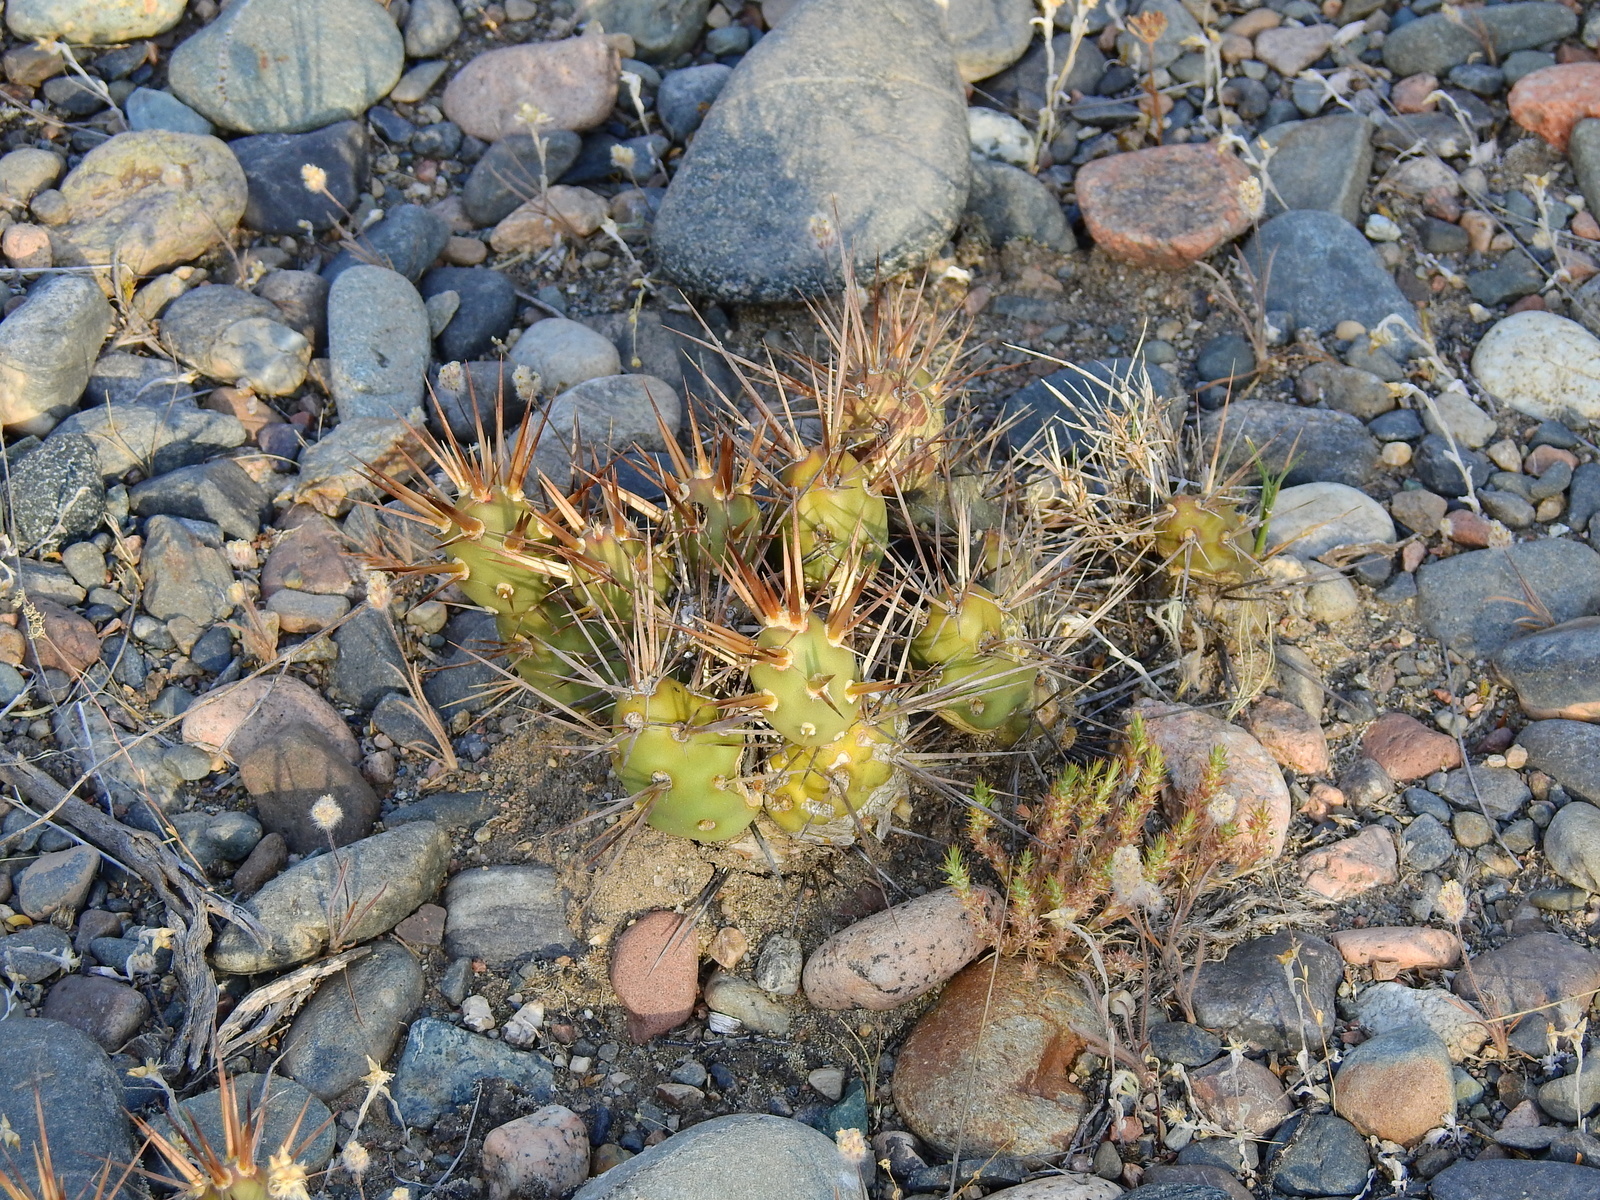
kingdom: Plantae
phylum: Tracheophyta
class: Magnoliopsida
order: Caryophyllales
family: Cactaceae
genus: Maihueniopsis
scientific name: Maihueniopsis darwinii
